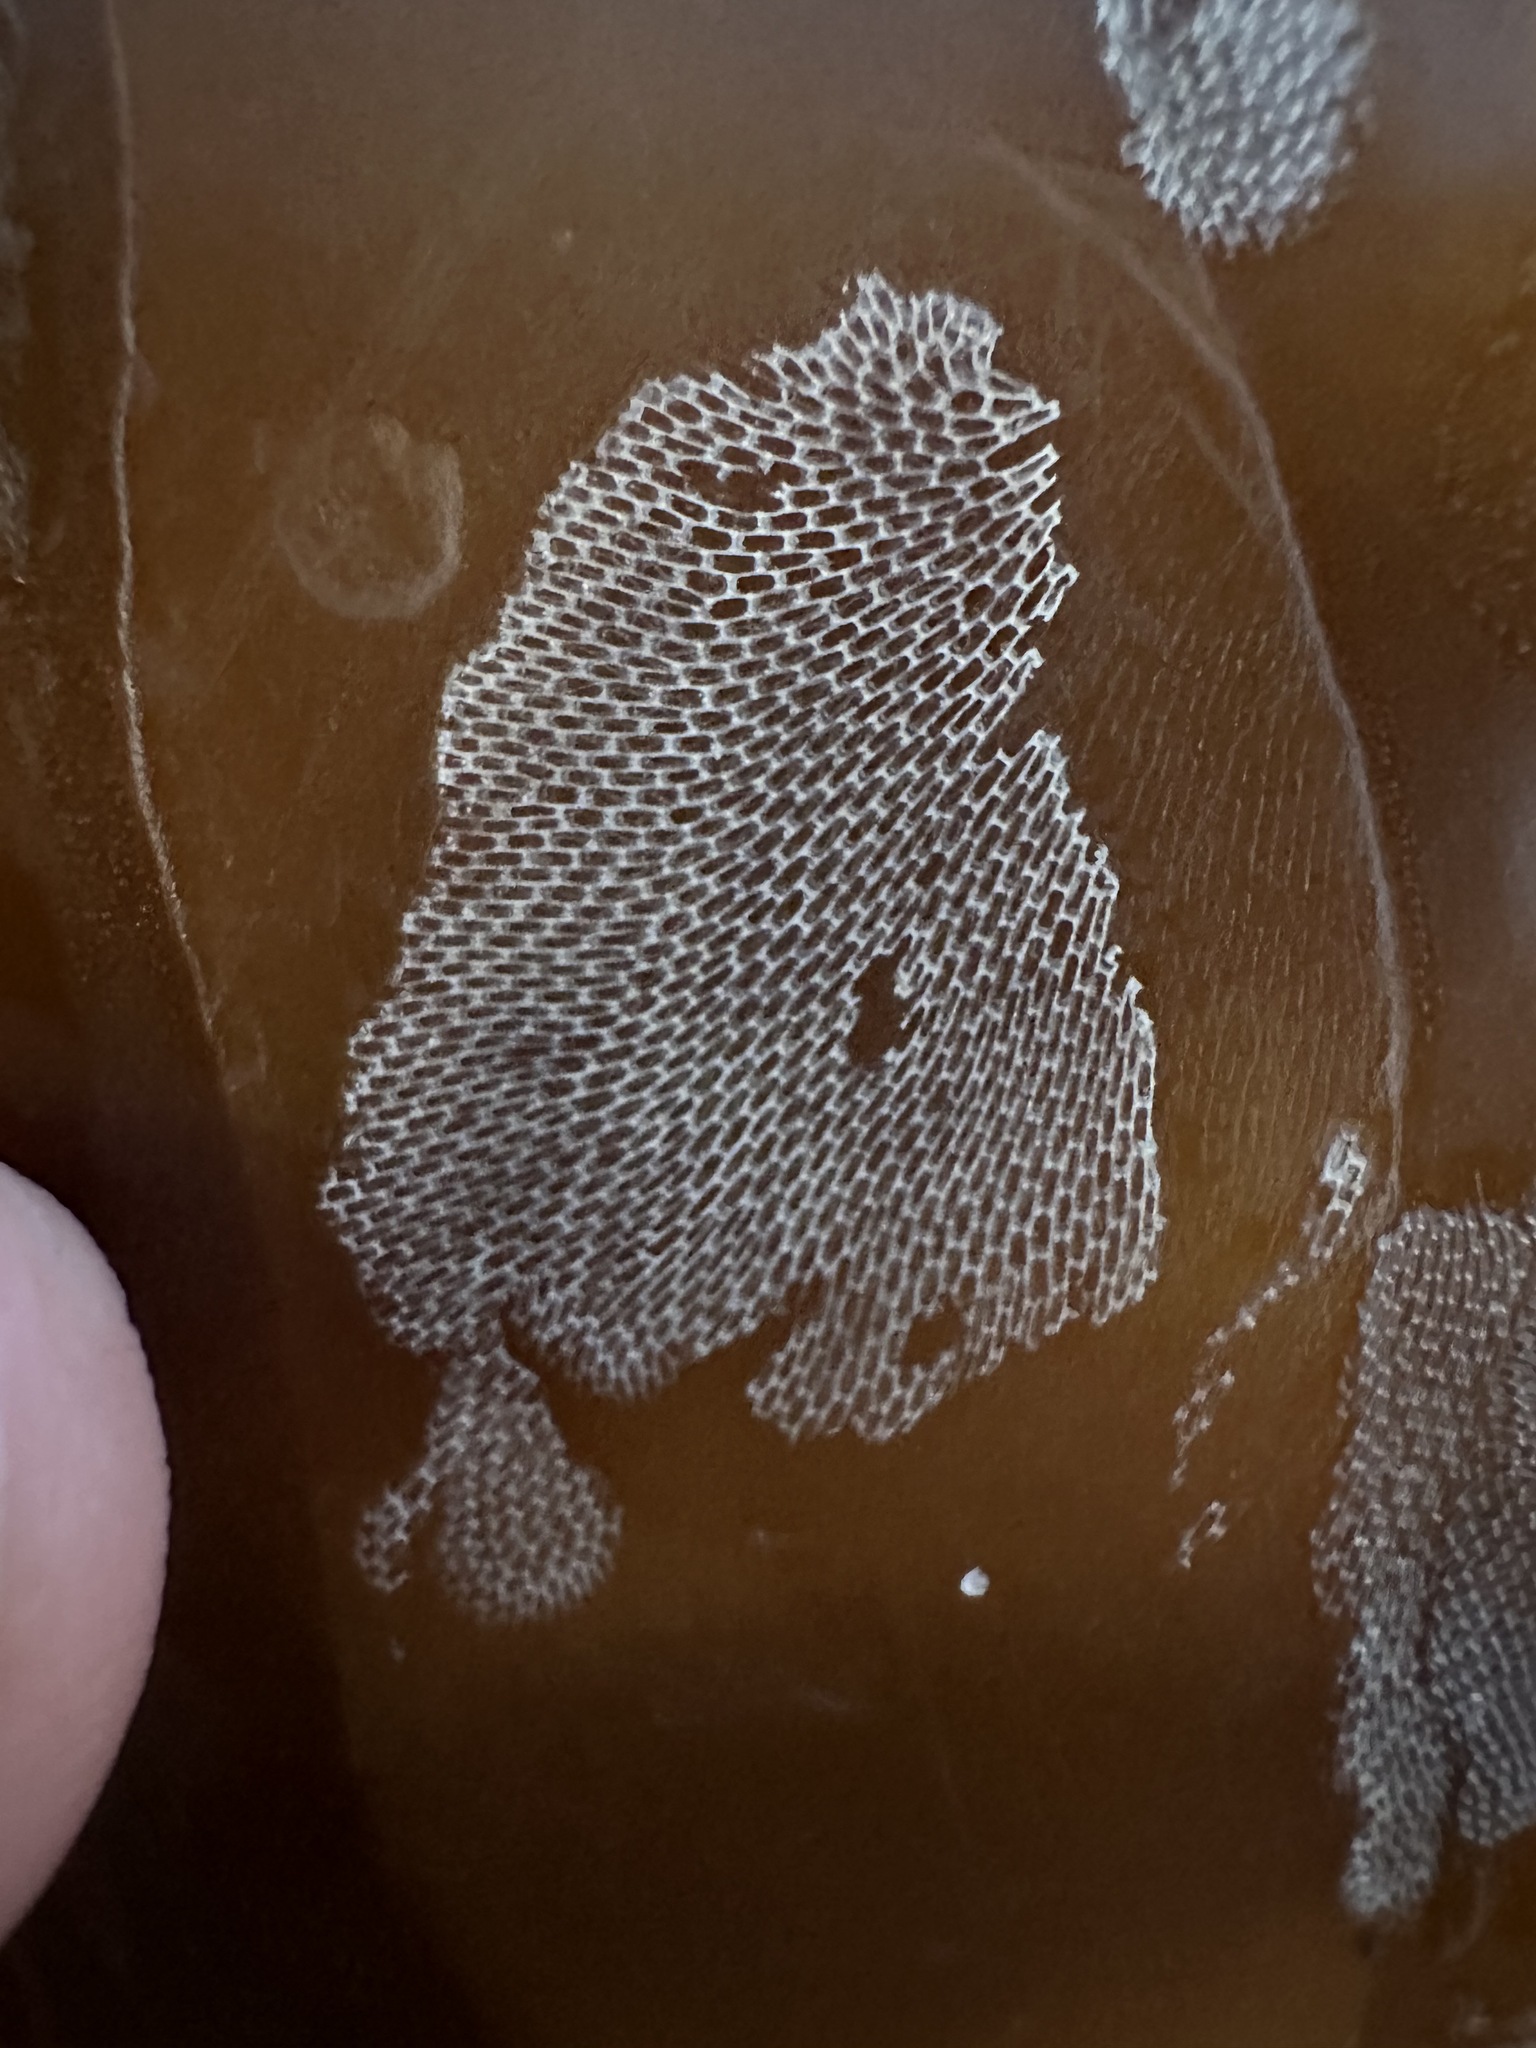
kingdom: Animalia
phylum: Bryozoa
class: Gymnolaemata
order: Cheilostomatida
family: Membraniporidae
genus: Membranipora
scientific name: Membranipora membranacea
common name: Sea mat
